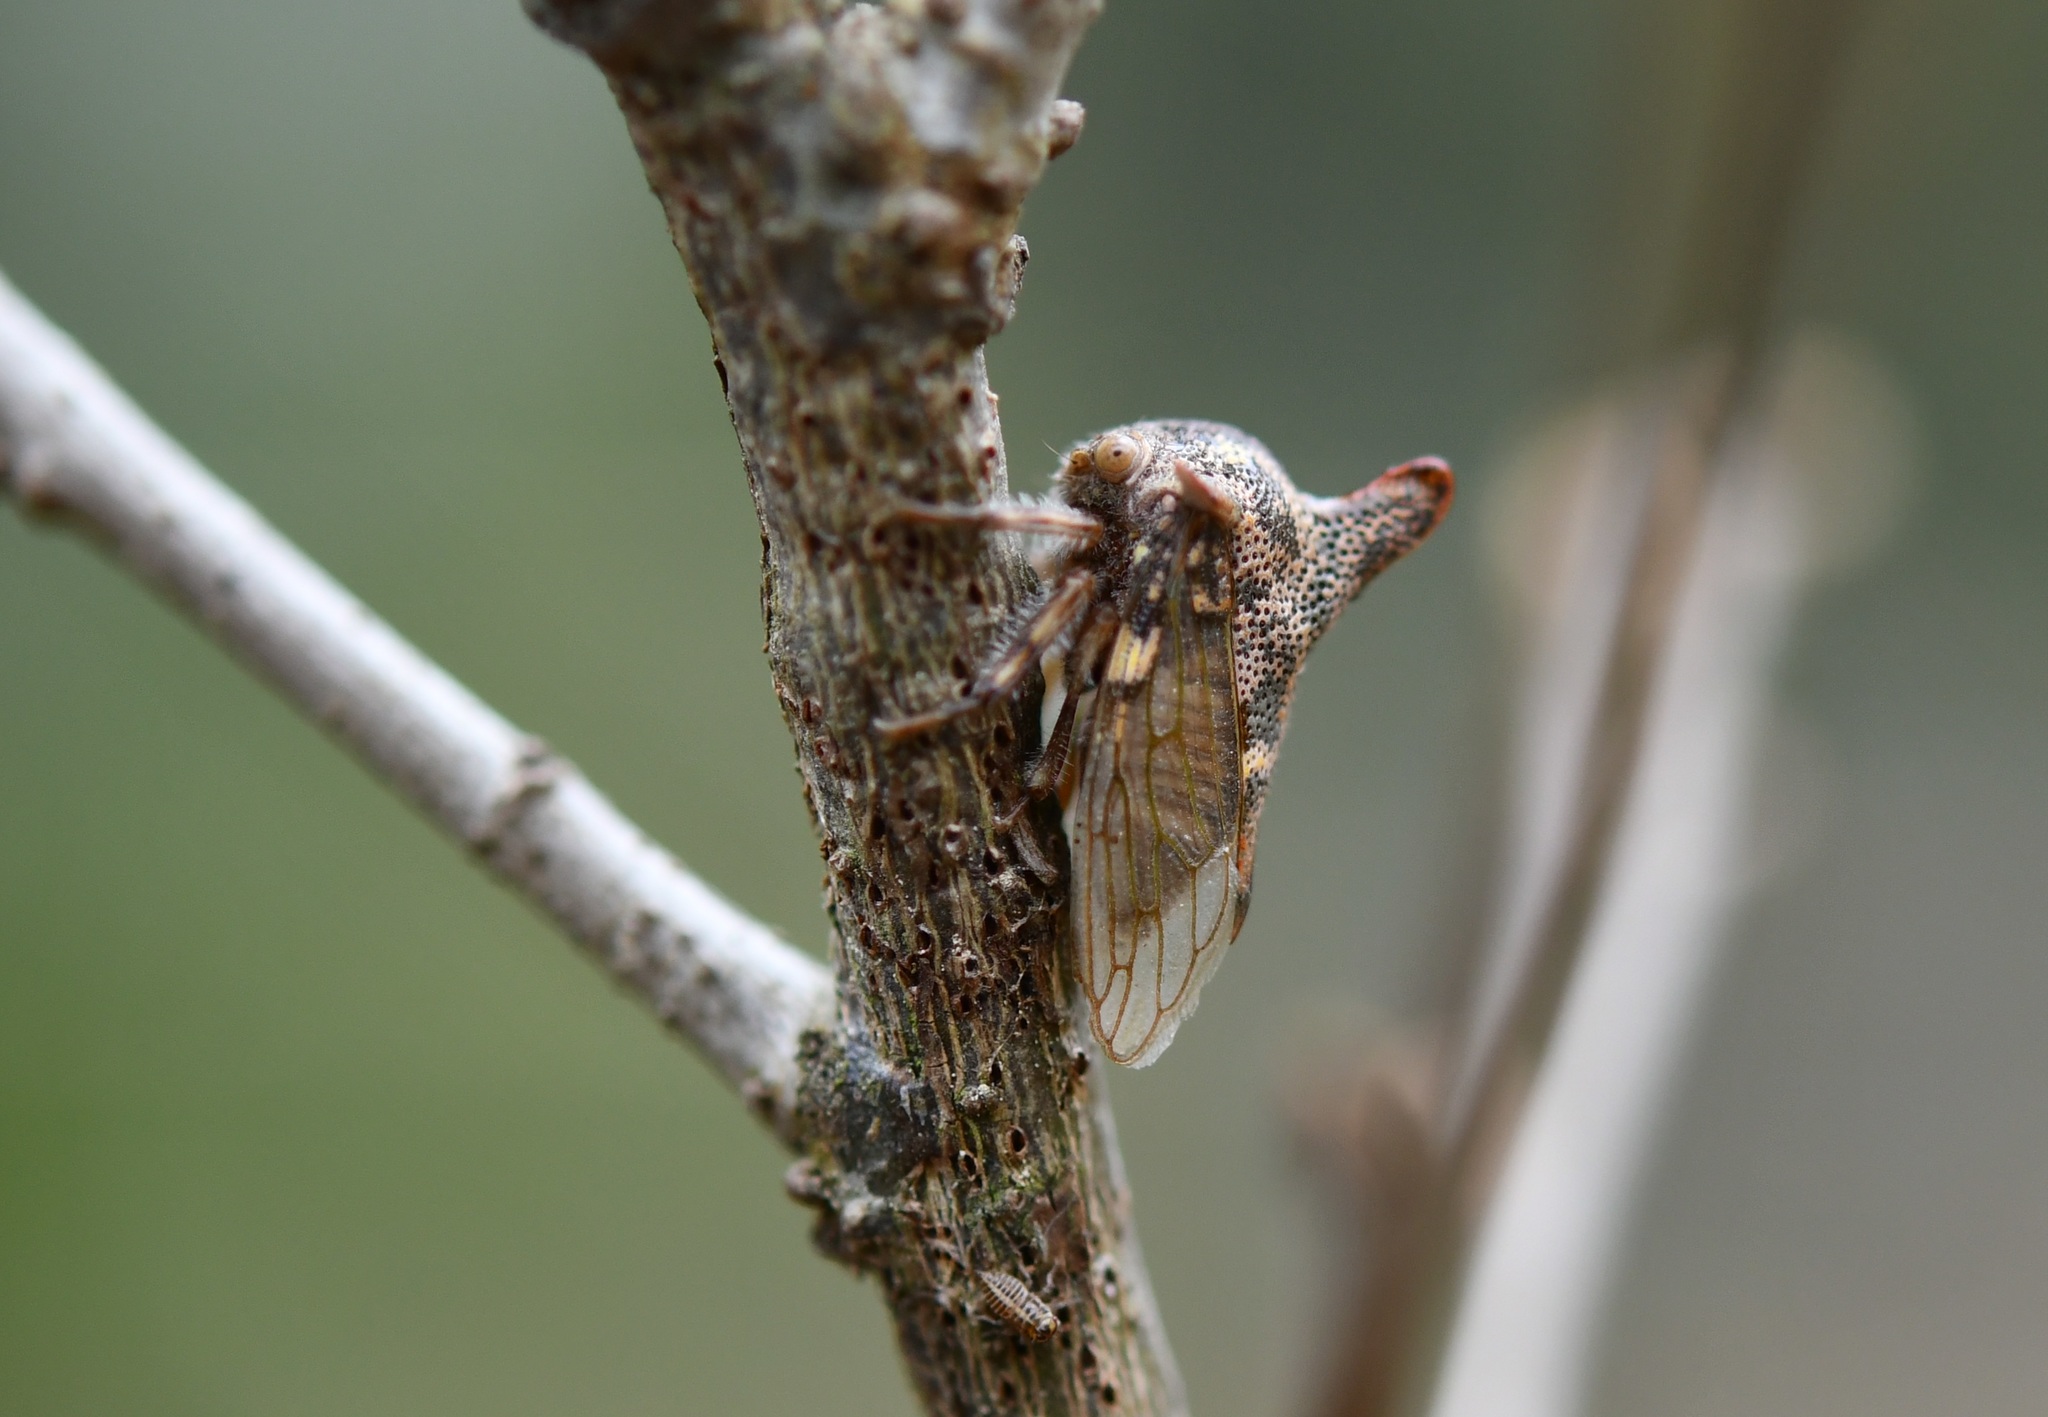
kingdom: Animalia
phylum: Arthropoda
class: Insecta
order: Hemiptera
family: Membracidae
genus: Platycotis
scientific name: Platycotis tuberculata
